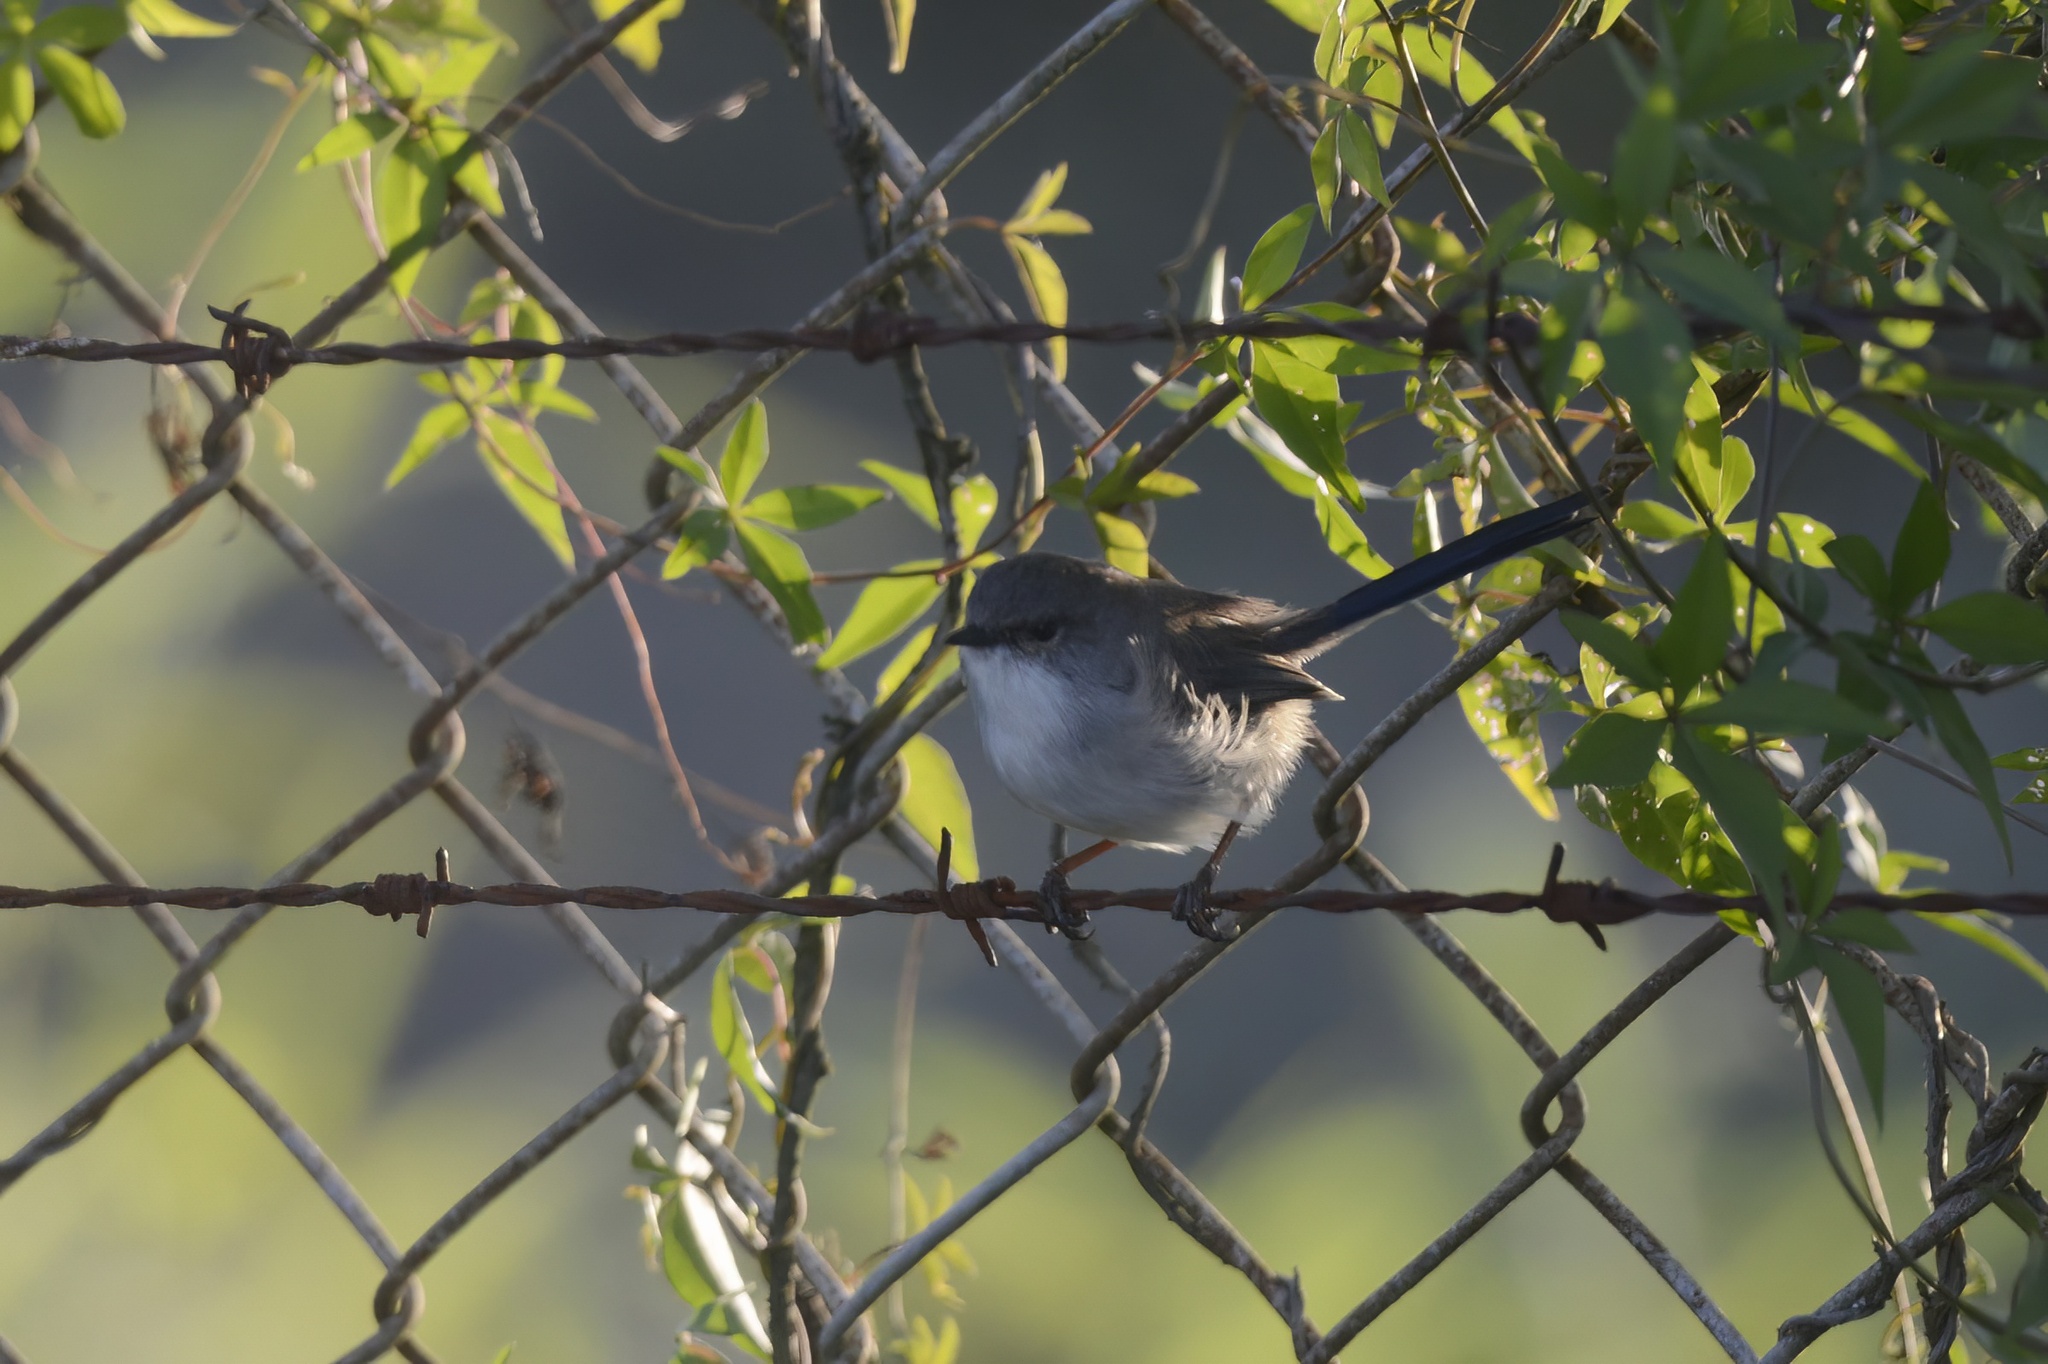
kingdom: Animalia
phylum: Chordata
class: Aves
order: Passeriformes
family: Maluridae
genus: Malurus
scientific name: Malurus cyaneus
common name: Superb fairywren
